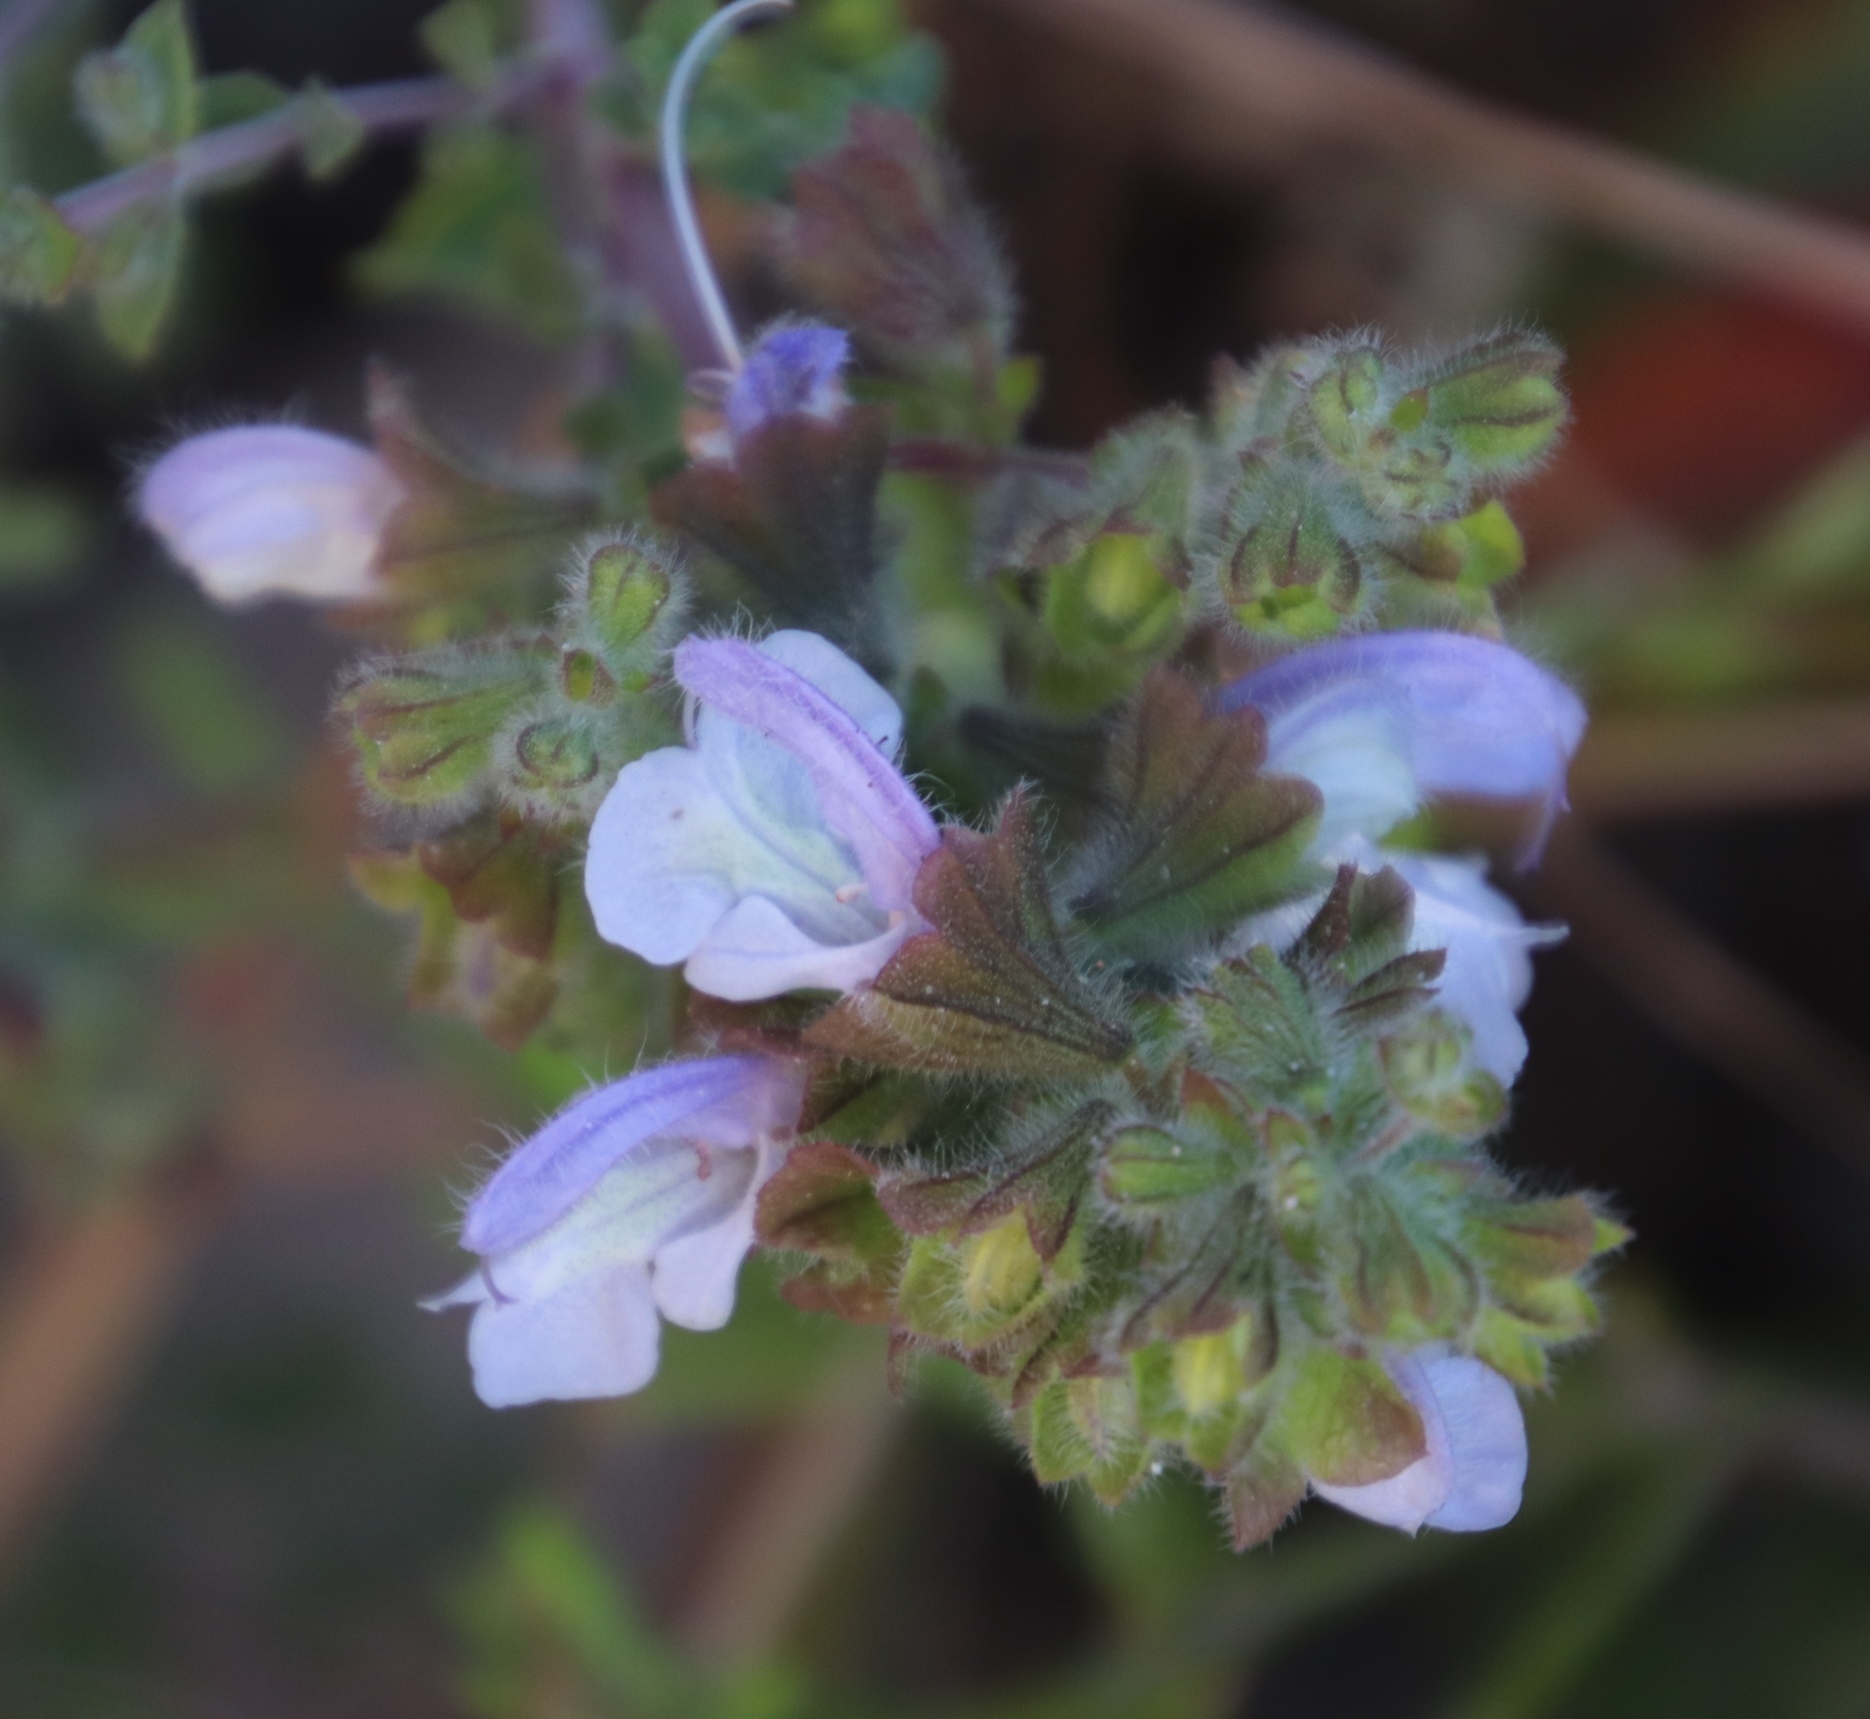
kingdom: Plantae
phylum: Tracheophyta
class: Magnoliopsida
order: Lamiales
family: Lamiaceae
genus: Salvia
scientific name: Salvia africana
